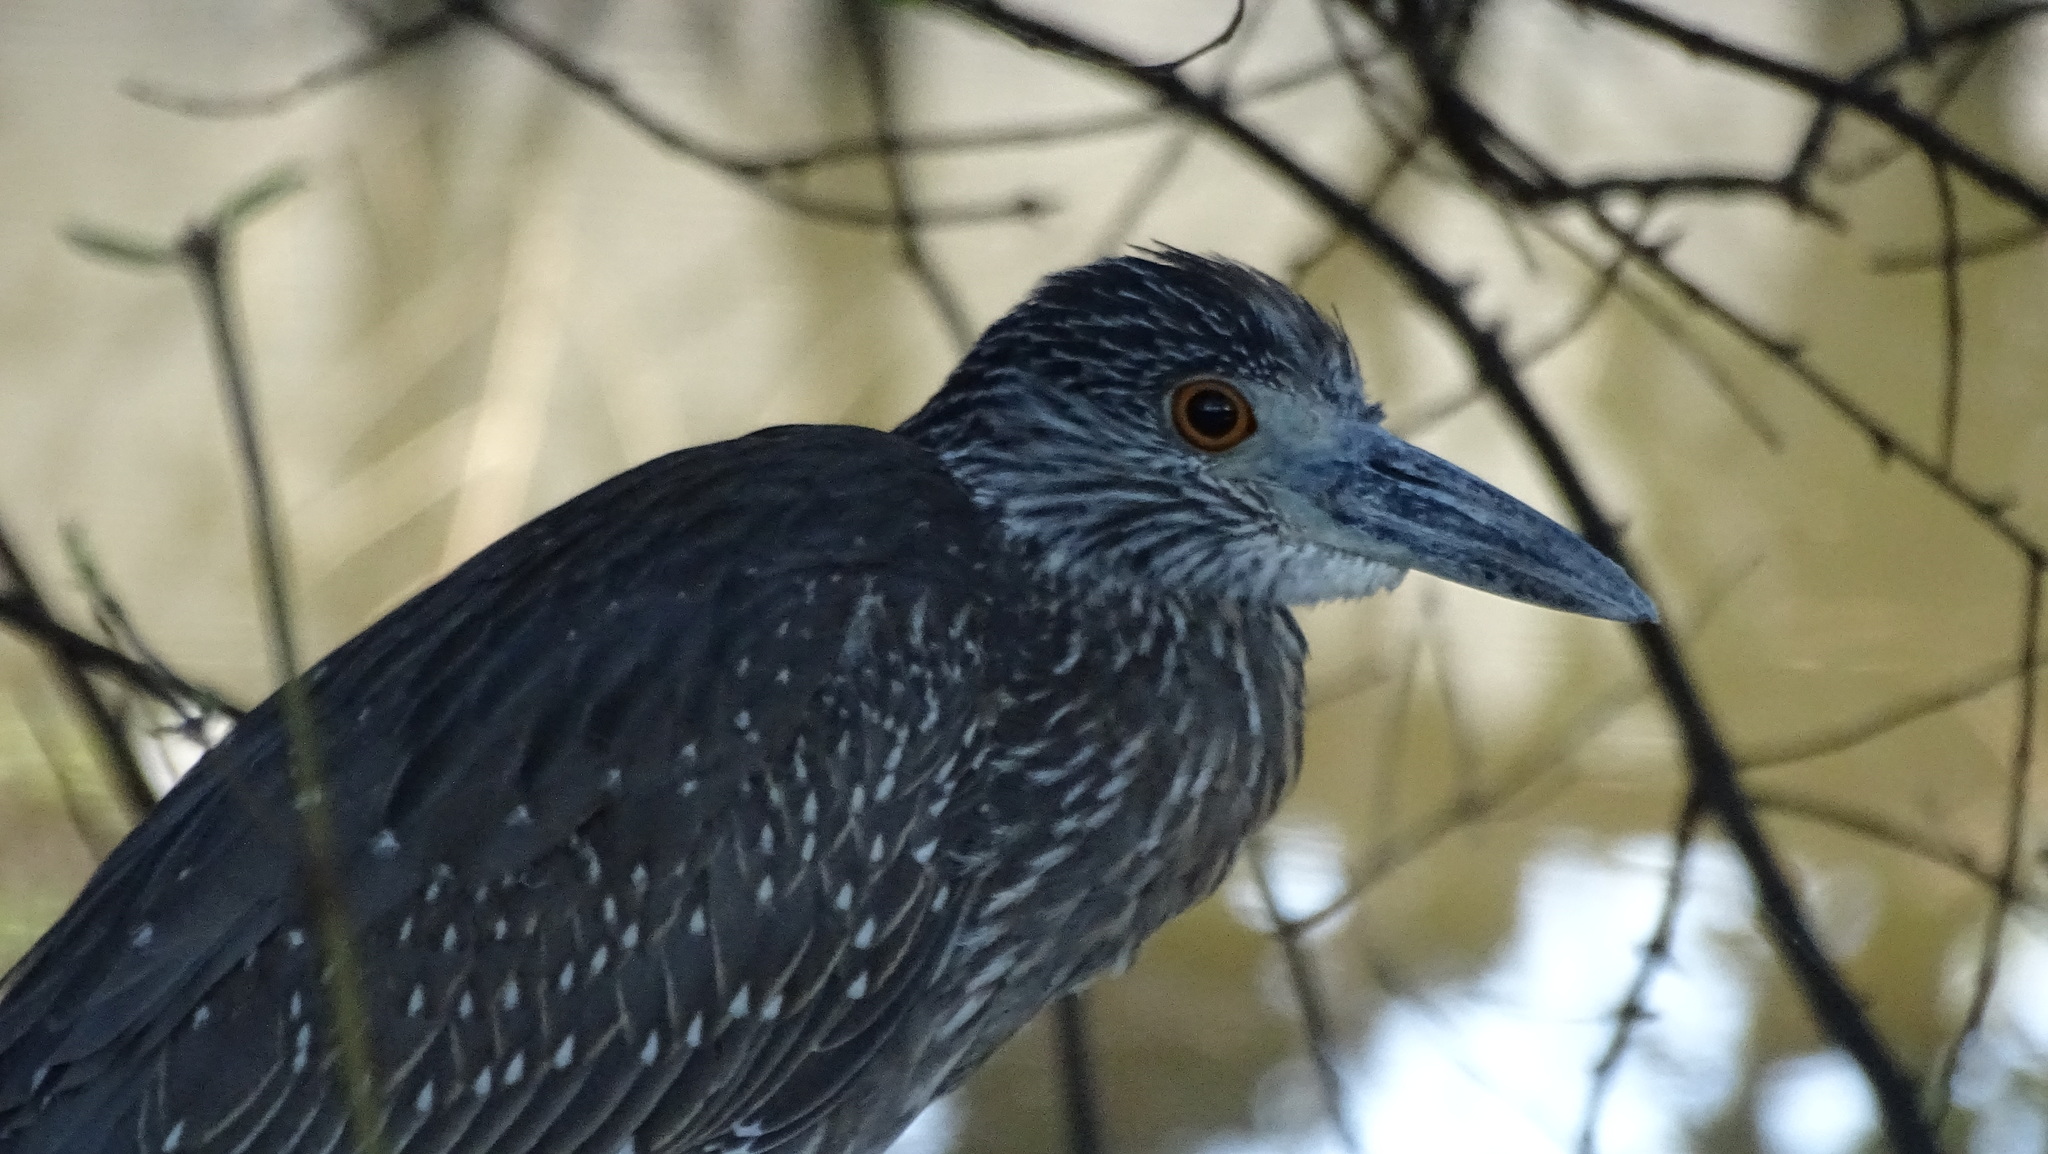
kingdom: Animalia
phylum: Chordata
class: Aves
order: Pelecaniformes
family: Ardeidae
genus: Nyctanassa
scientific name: Nyctanassa violacea
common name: Yellow-crowned night heron
